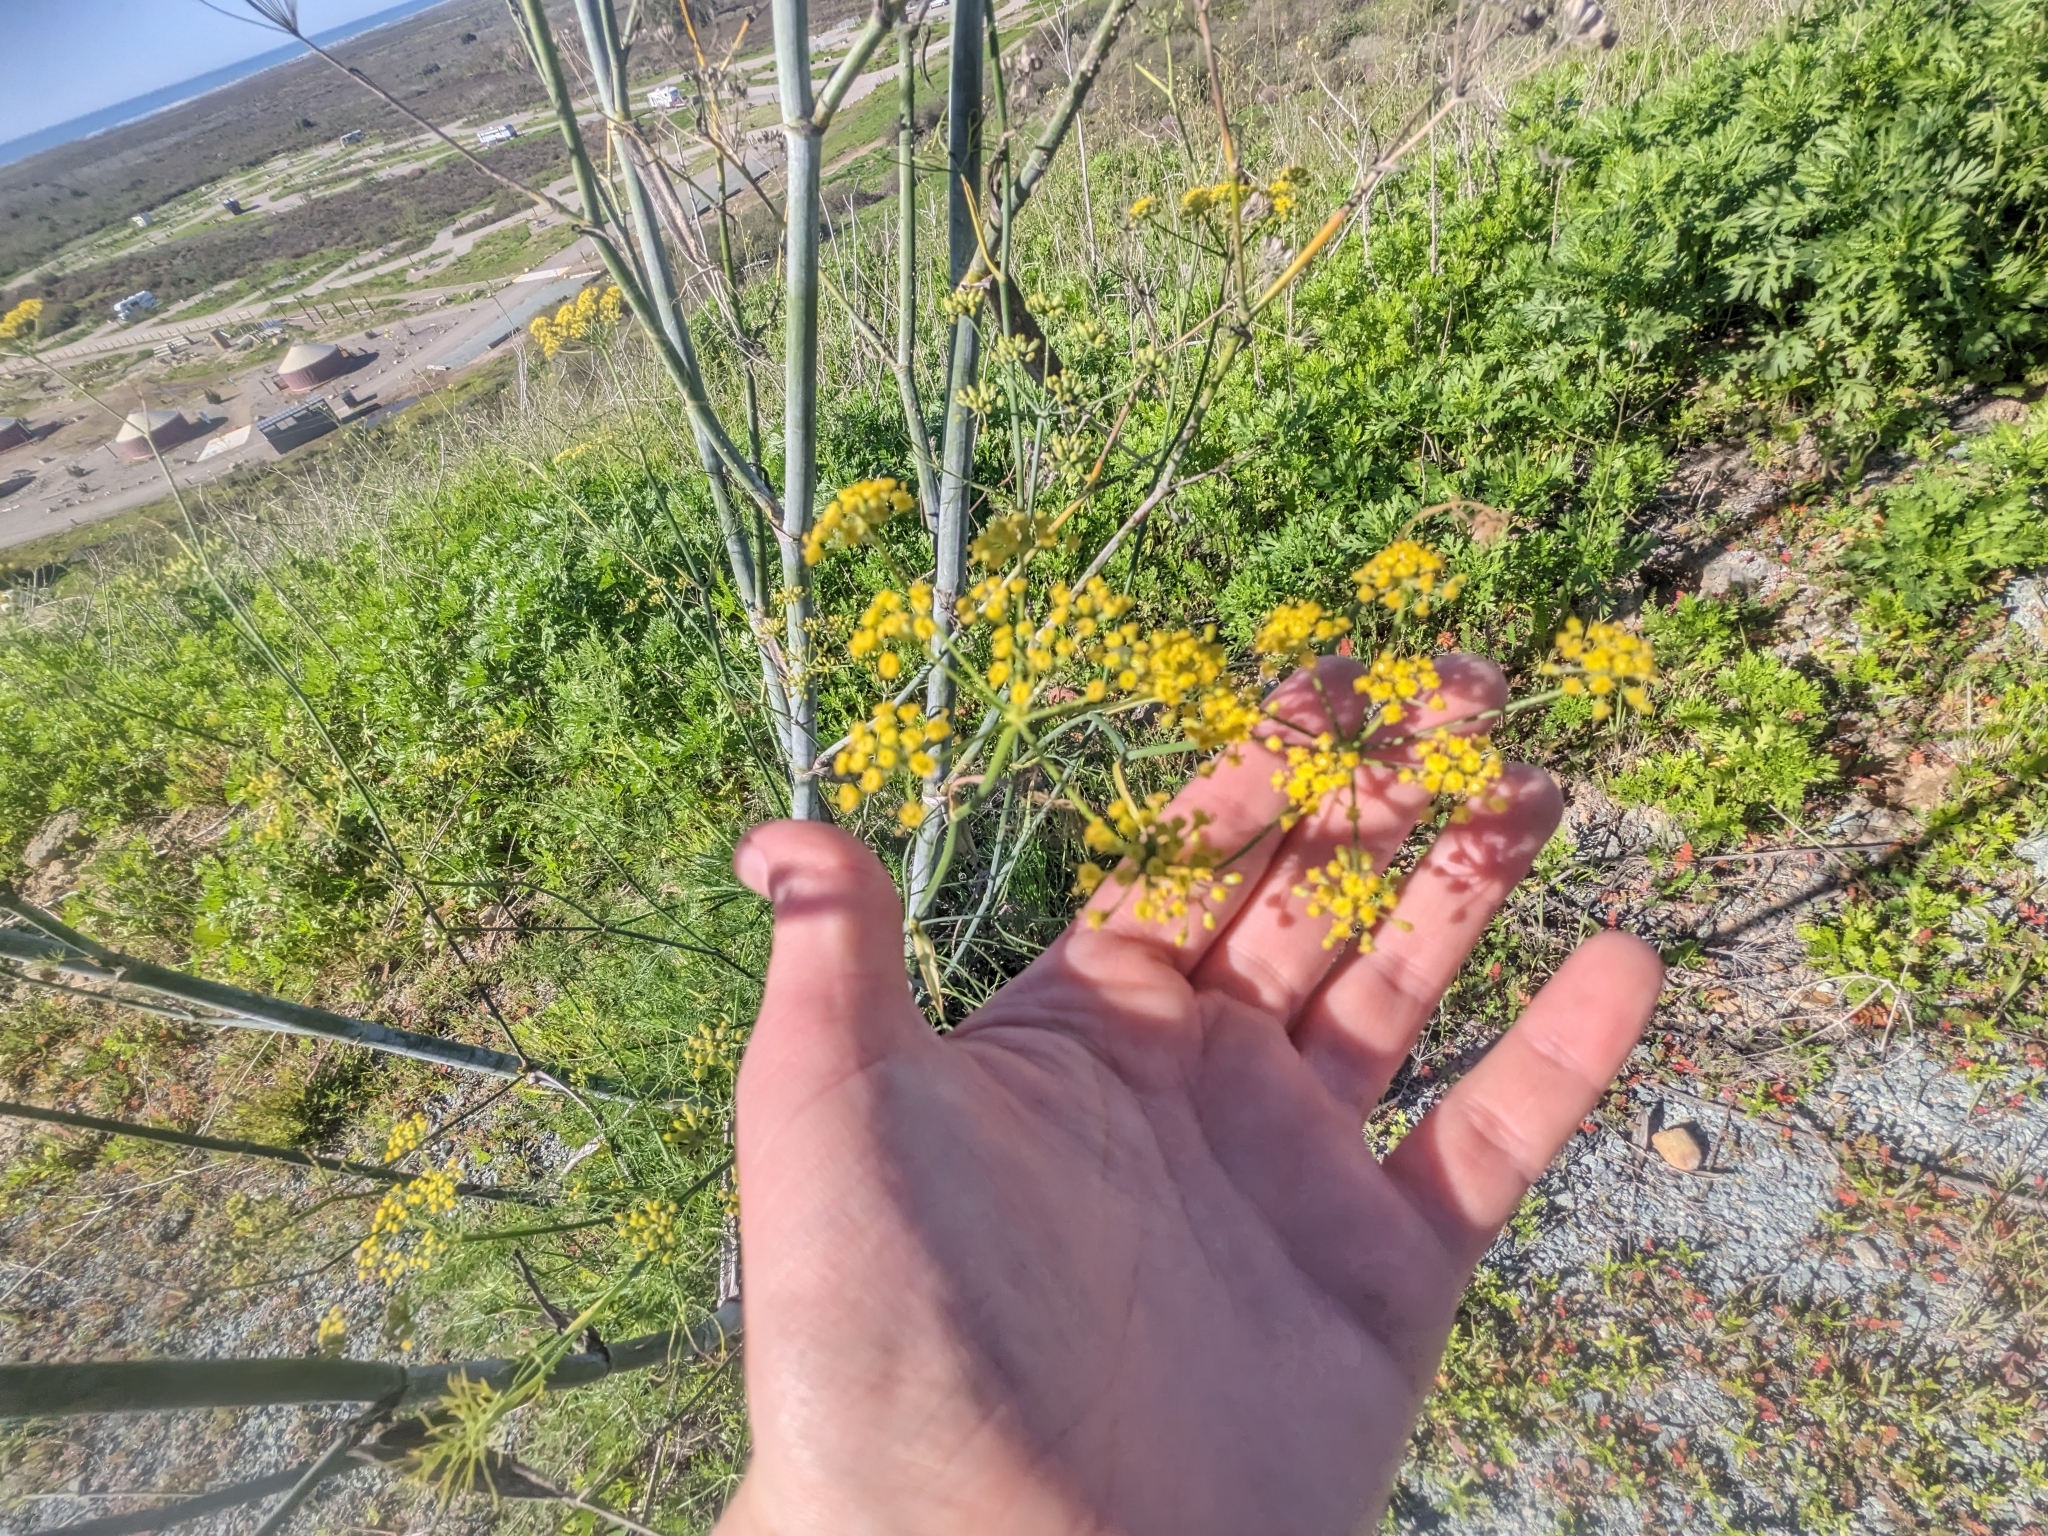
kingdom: Plantae
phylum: Tracheophyta
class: Magnoliopsida
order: Apiales
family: Apiaceae
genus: Foeniculum
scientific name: Foeniculum vulgare
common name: Fennel
